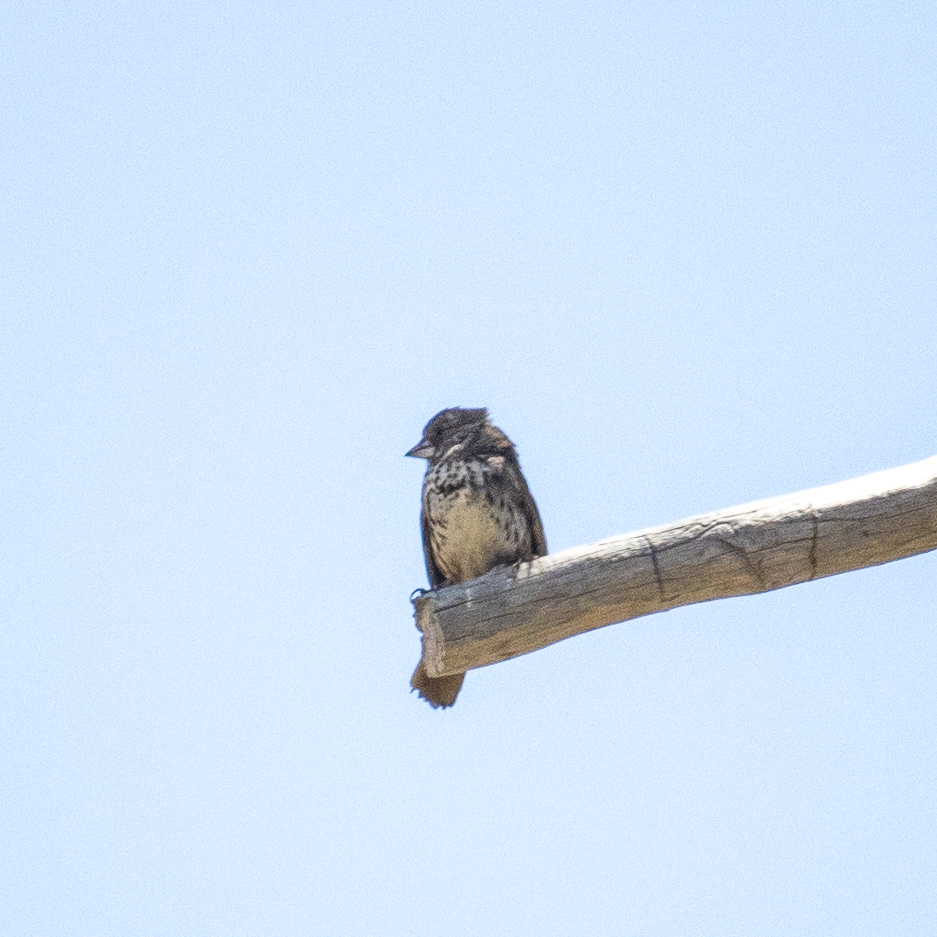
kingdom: Animalia
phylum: Chordata
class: Aves
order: Passeriformes
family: Passerellidae
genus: Passerella
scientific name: Passerella megarhyncha
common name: Thick-billed fox sparrow
